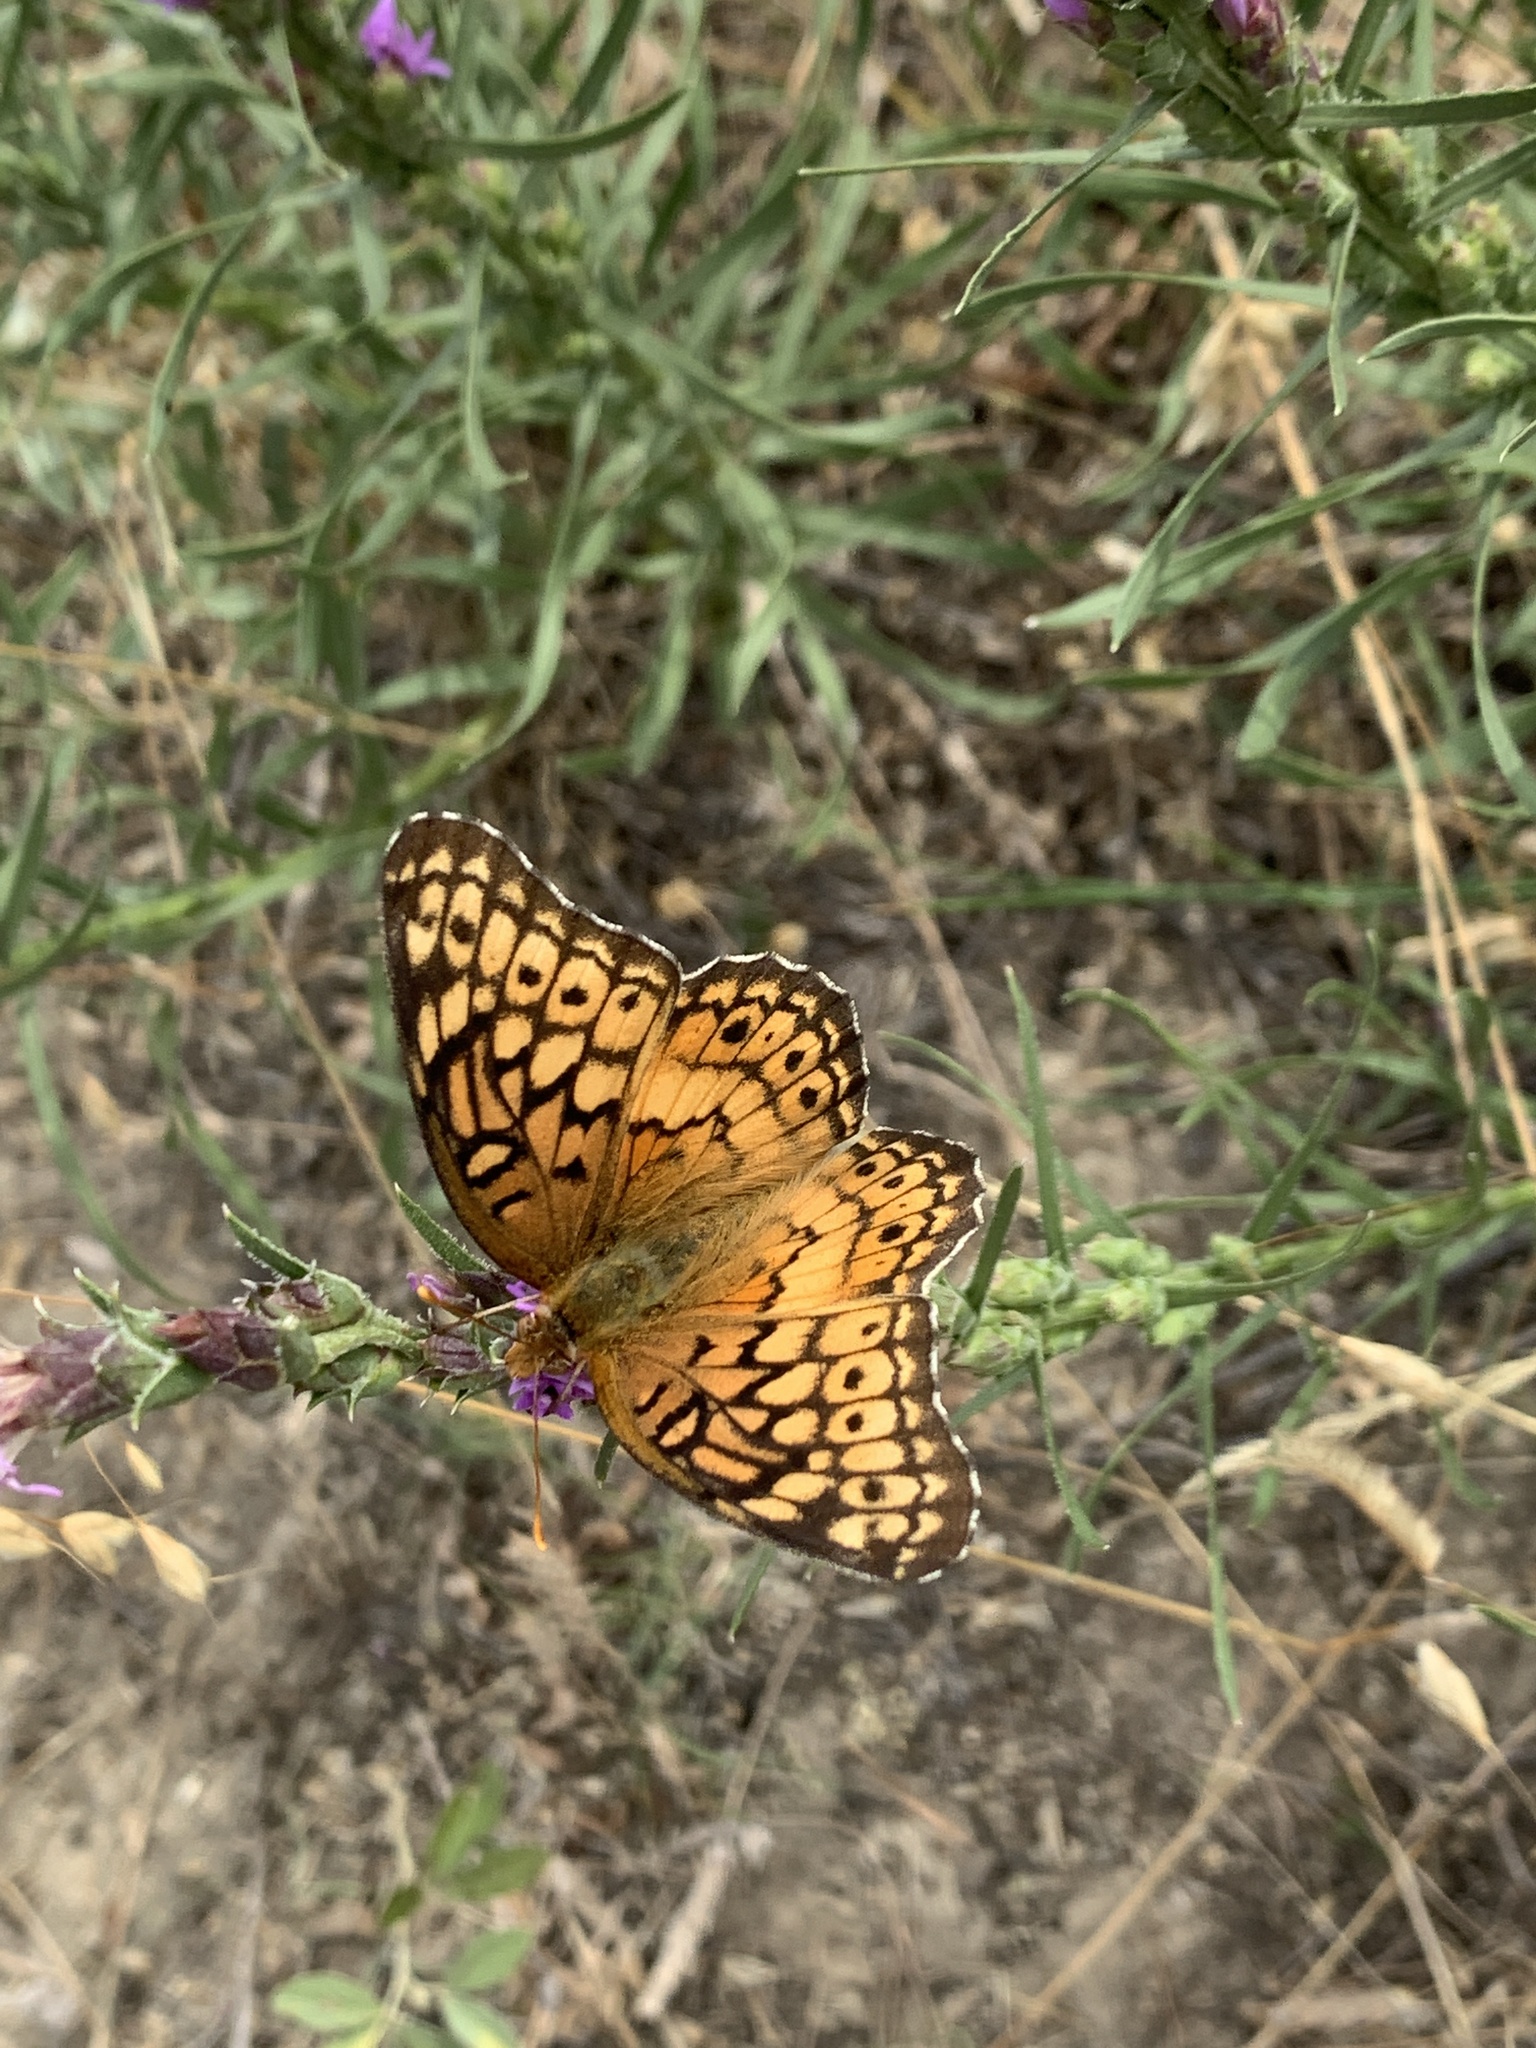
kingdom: Animalia
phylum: Arthropoda
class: Insecta
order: Lepidoptera
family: Nymphalidae
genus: Euptoieta
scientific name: Euptoieta claudia
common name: Variegated fritillary
